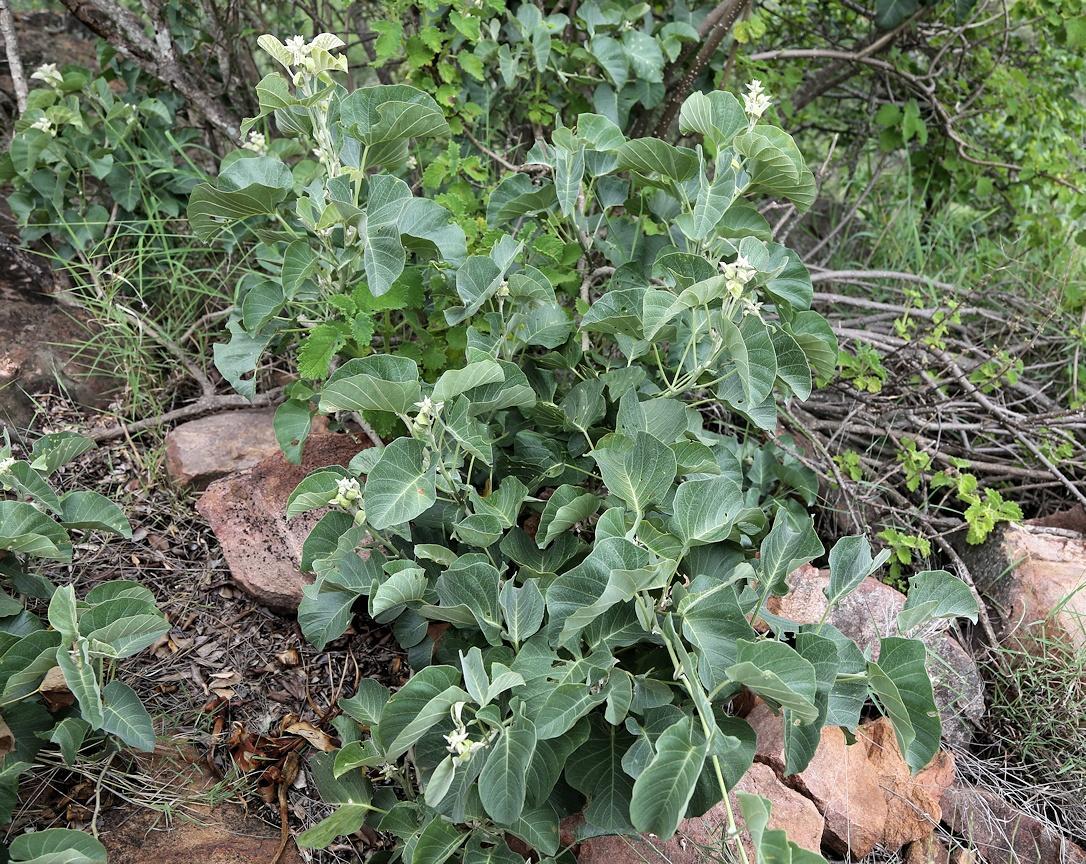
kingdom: Plantae
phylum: Tracheophyta
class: Magnoliopsida
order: Solanales
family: Convolvulaceae
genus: Ipomoea
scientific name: Ipomoea albivenia
